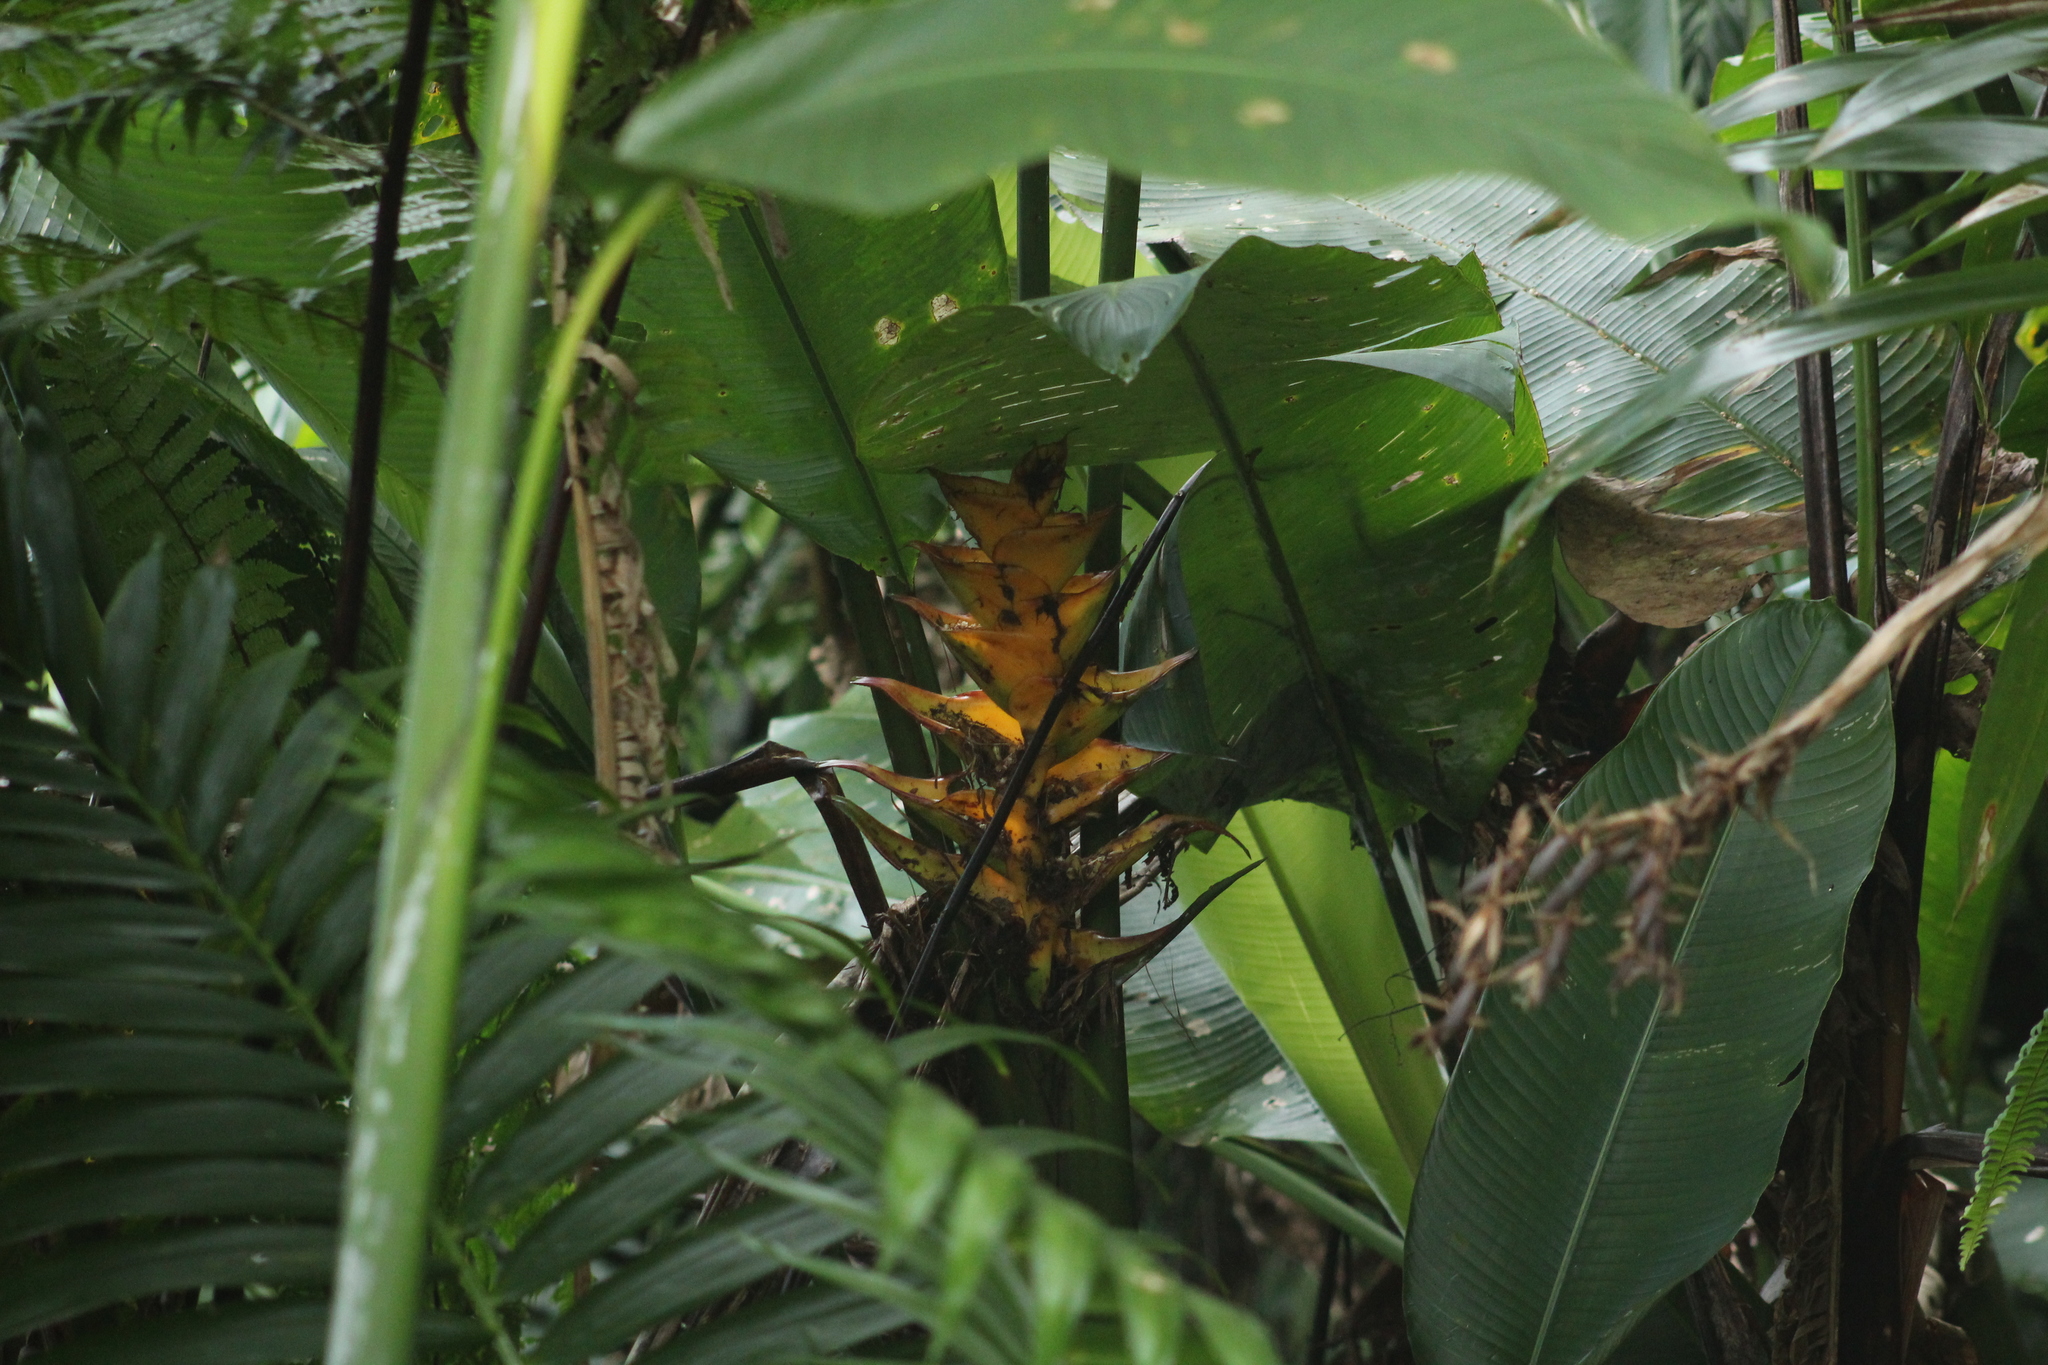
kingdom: Plantae
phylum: Tracheophyta
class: Liliopsida
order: Zingiberales
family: Heliconiaceae
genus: Heliconia
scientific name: Heliconia caribaea
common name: Wild plantain
